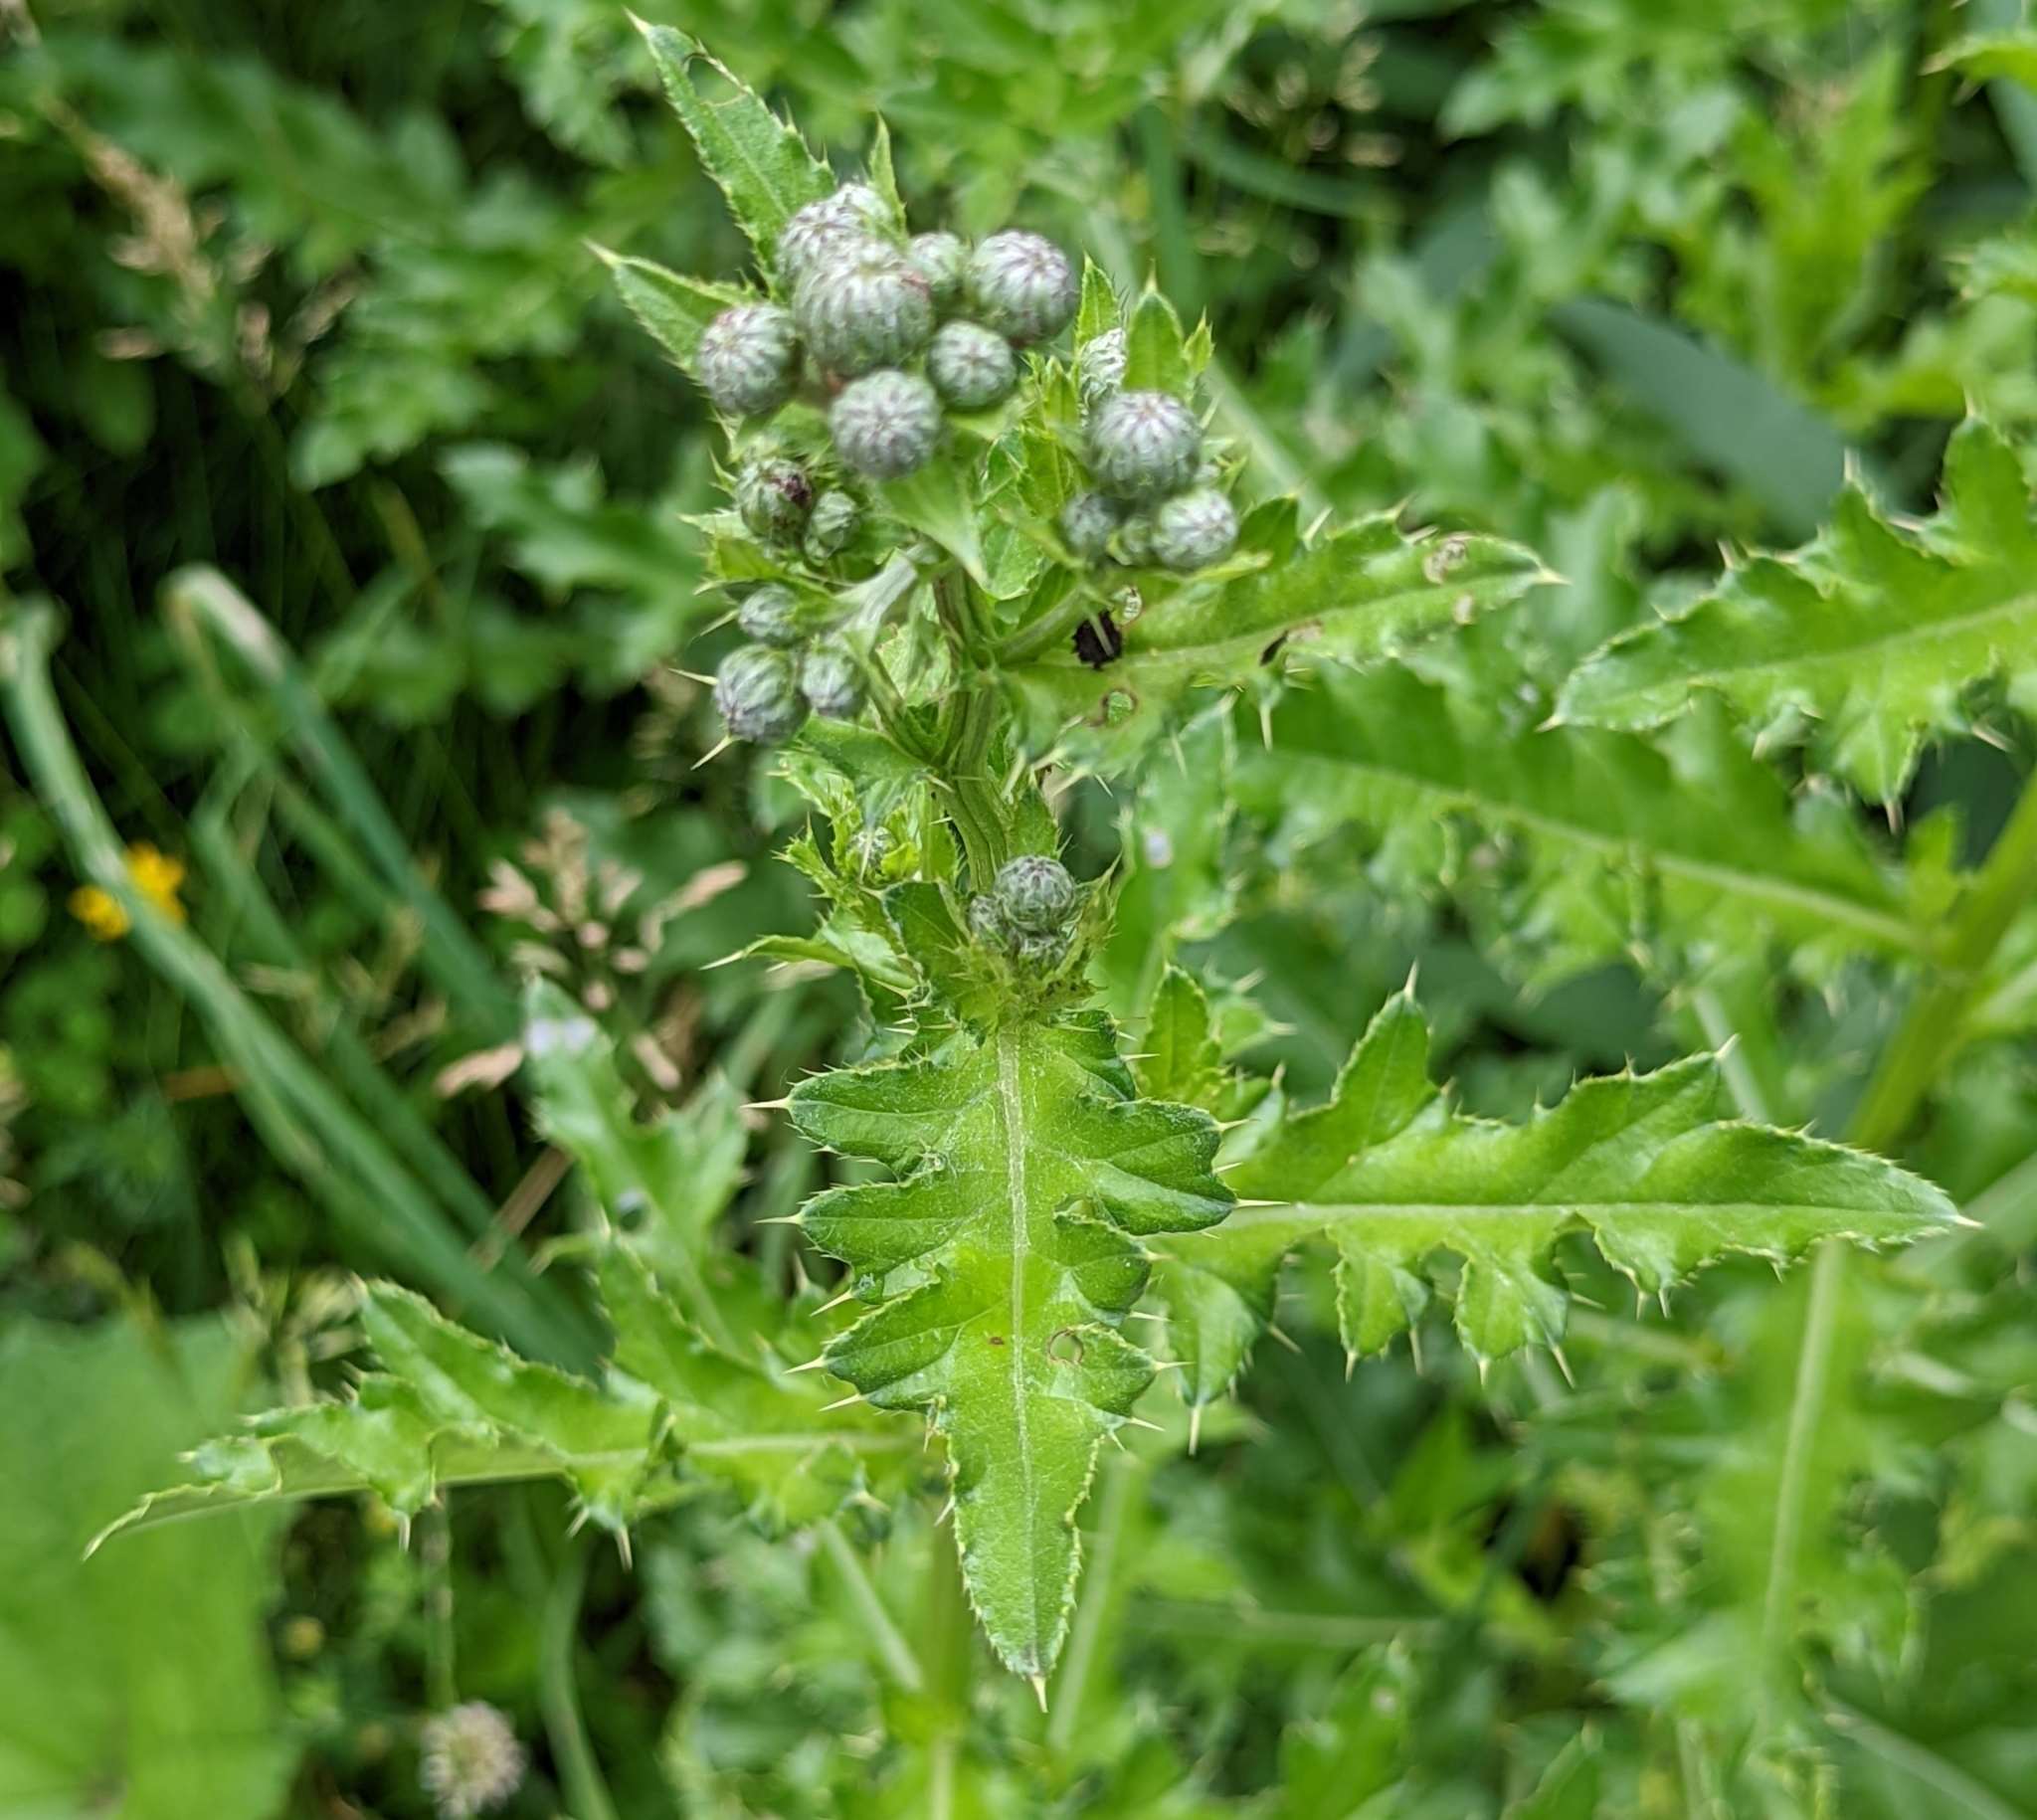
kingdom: Plantae
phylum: Tracheophyta
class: Magnoliopsida
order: Asterales
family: Asteraceae
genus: Cirsium
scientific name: Cirsium arvense
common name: Creeping thistle
